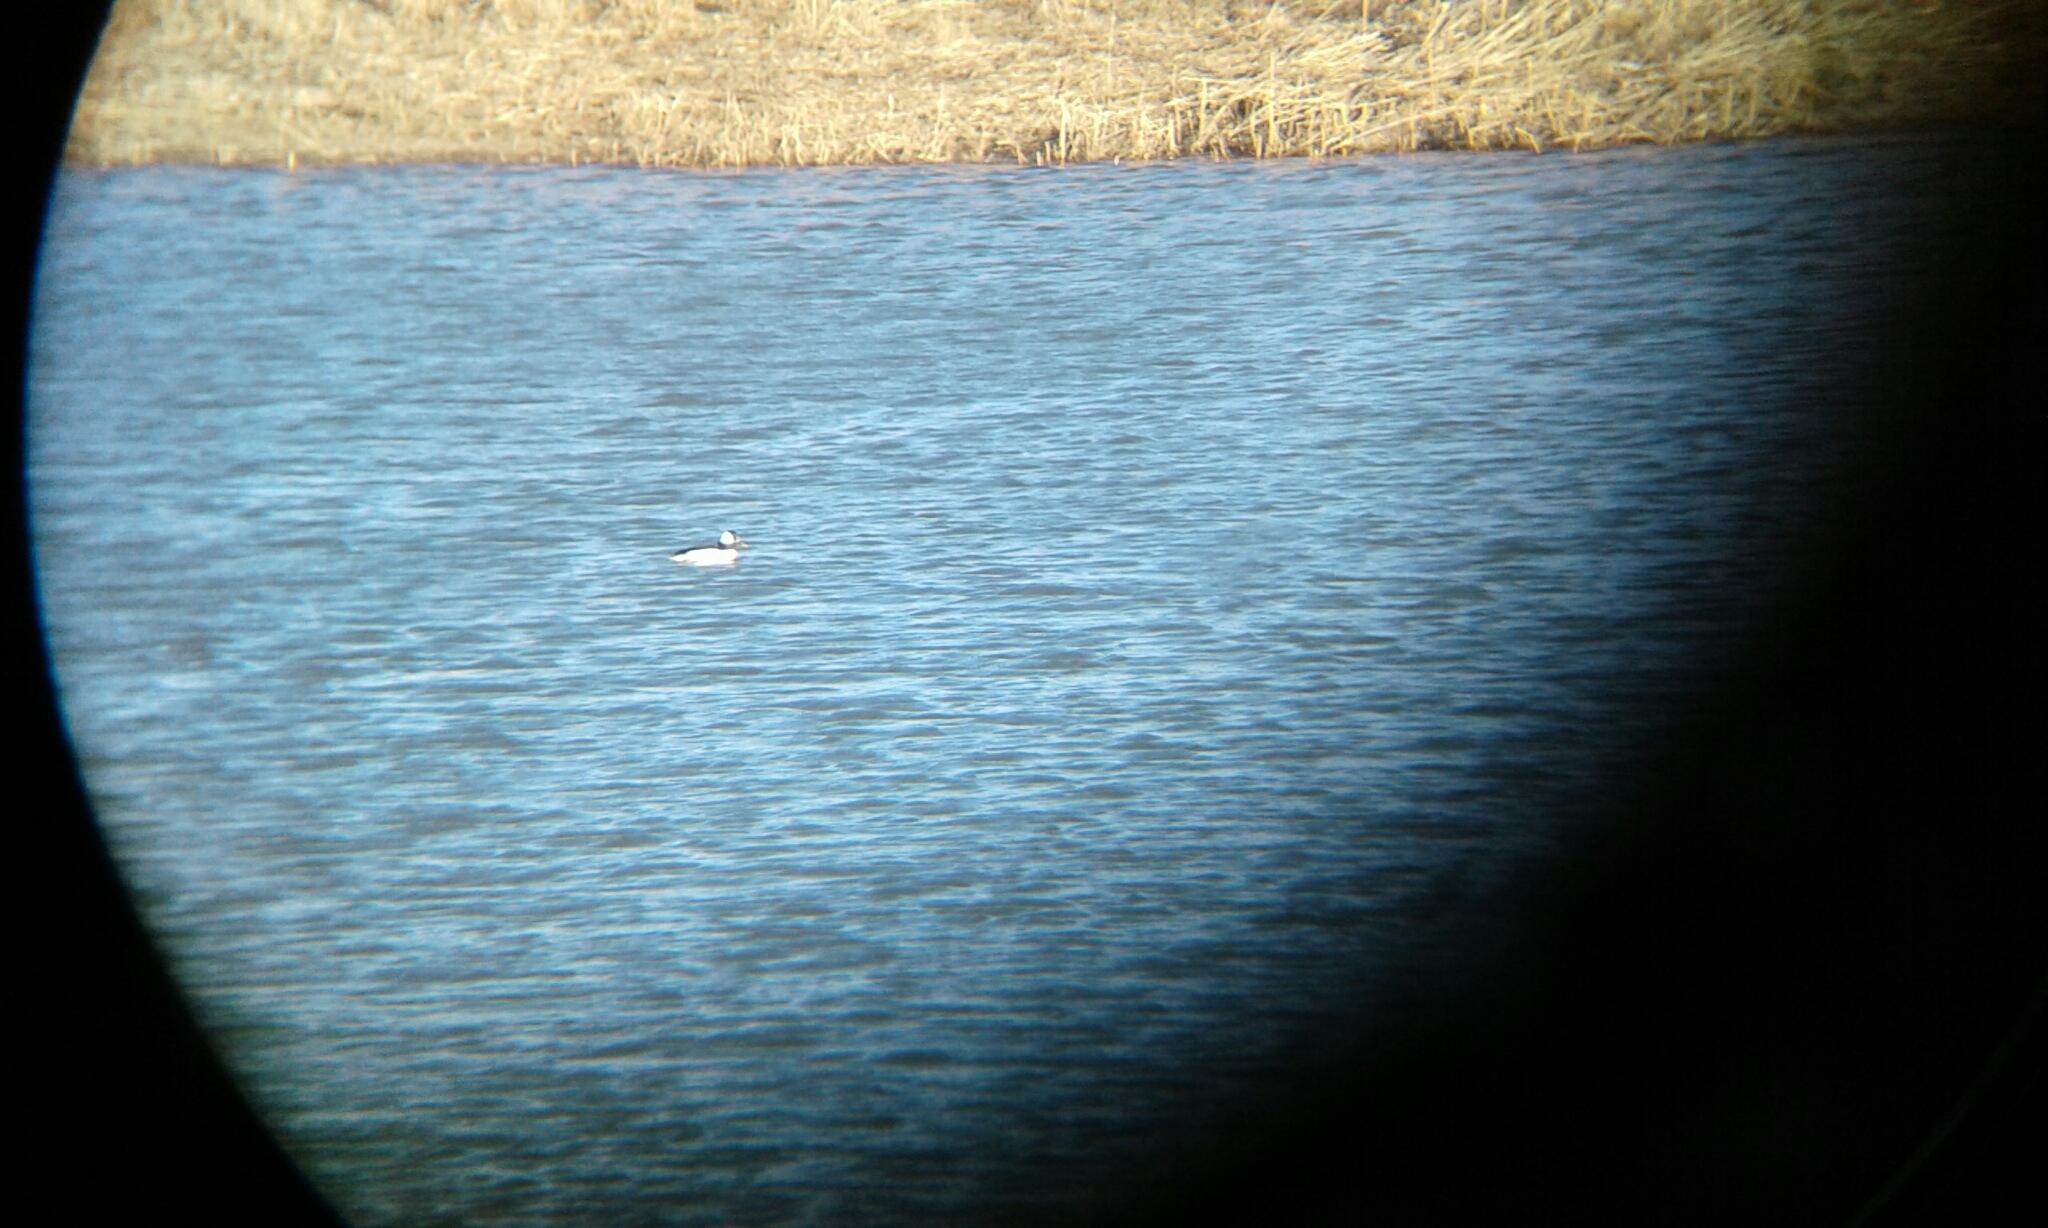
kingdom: Animalia
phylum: Chordata
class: Aves
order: Anseriformes
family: Anatidae
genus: Bucephala
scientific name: Bucephala albeola
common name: Bufflehead
